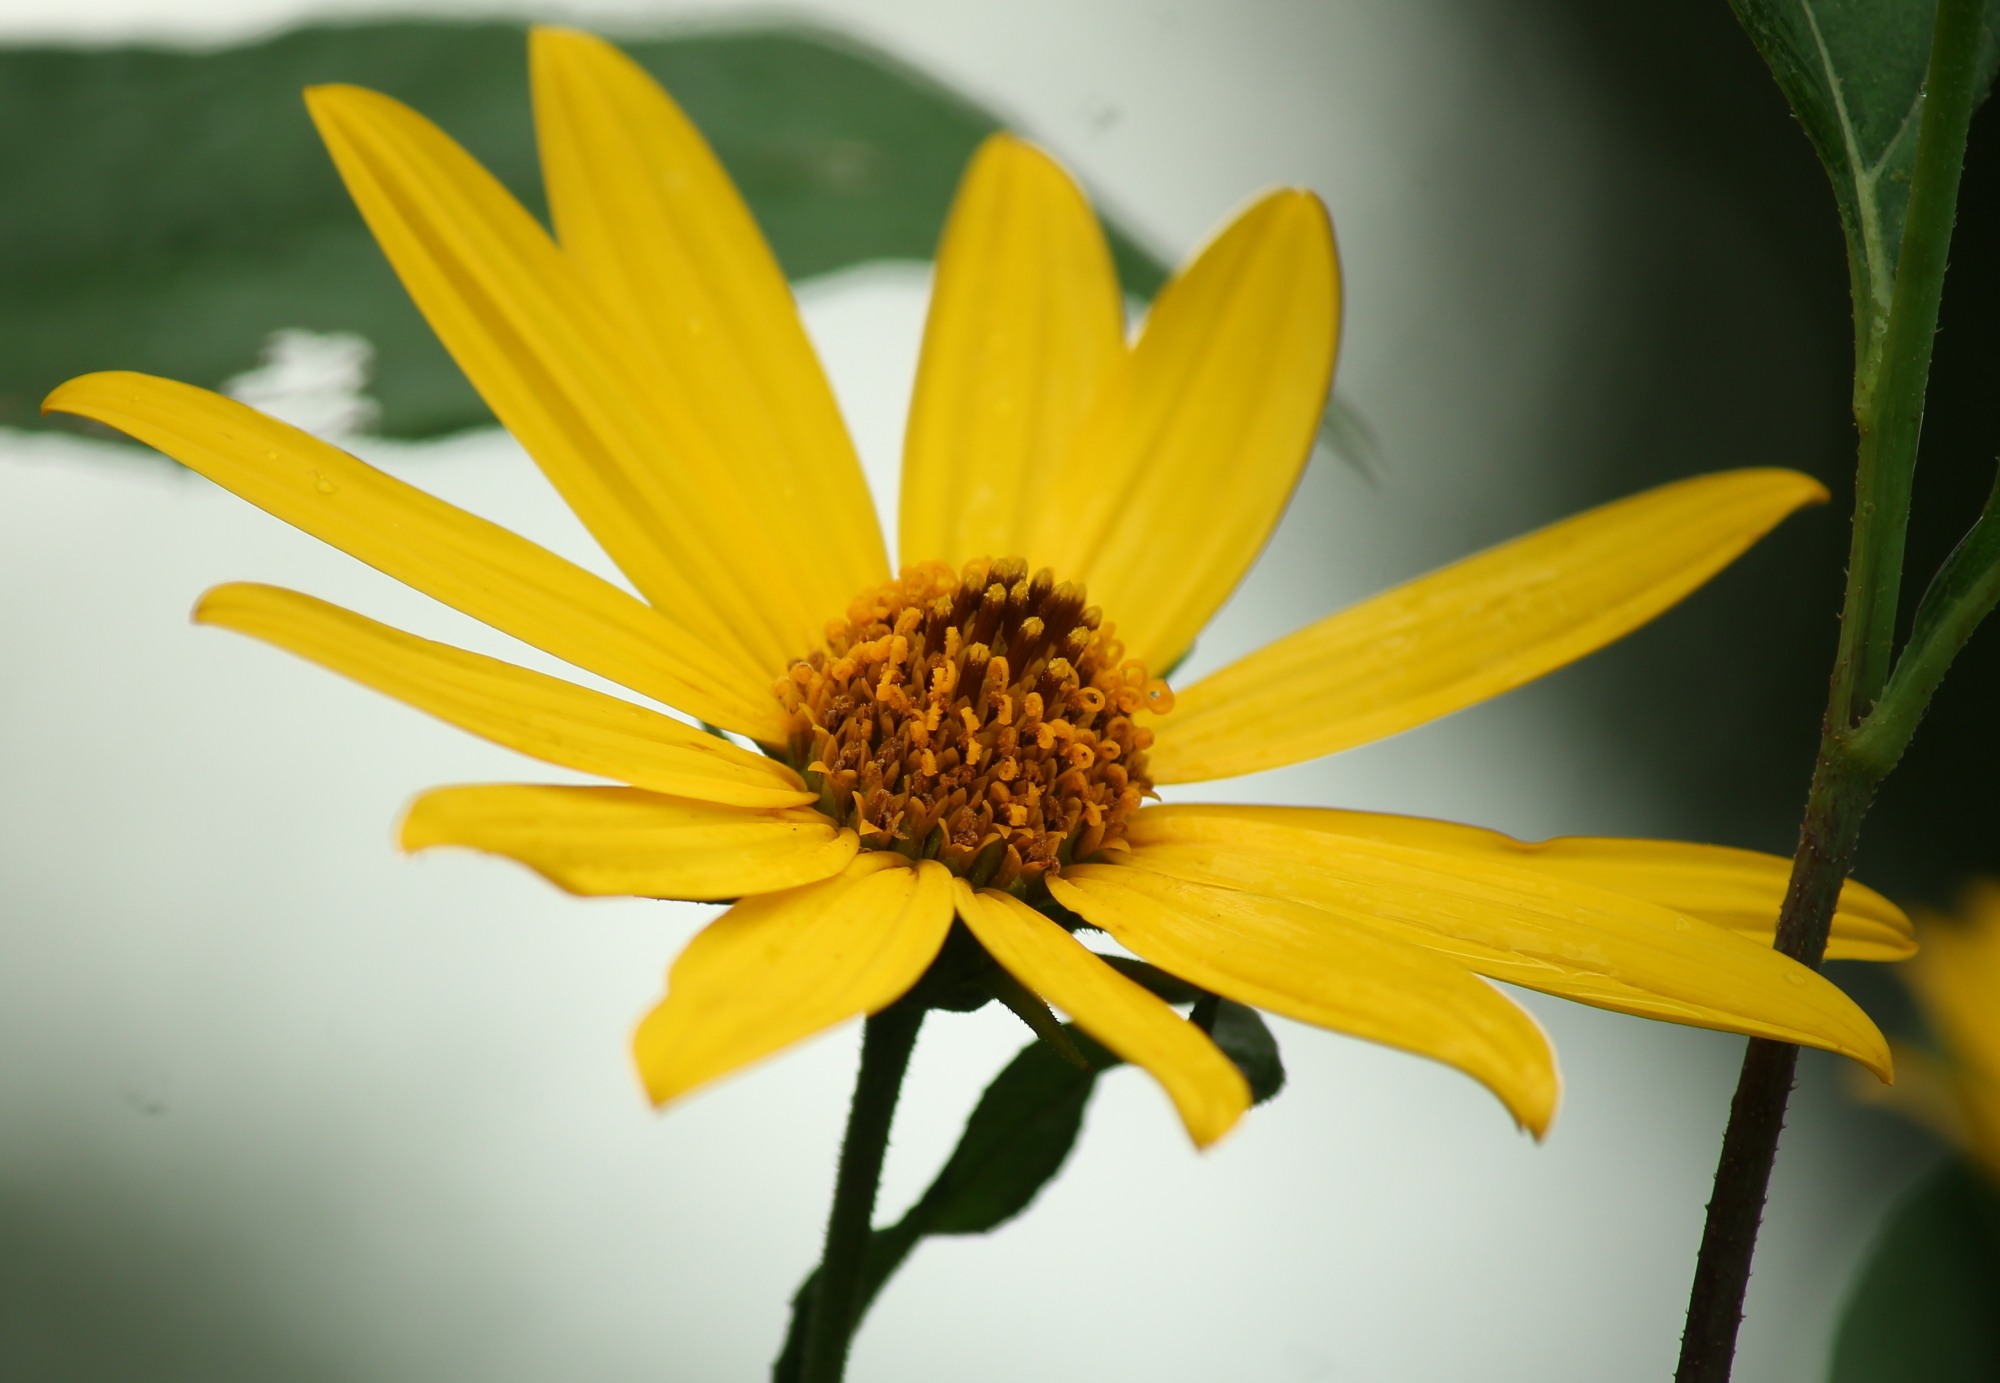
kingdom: Plantae
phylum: Tracheophyta
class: Magnoliopsida
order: Asterales
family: Asteraceae
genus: Helianthus
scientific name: Helianthus tuberosus
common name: Jerusalem artichoke
